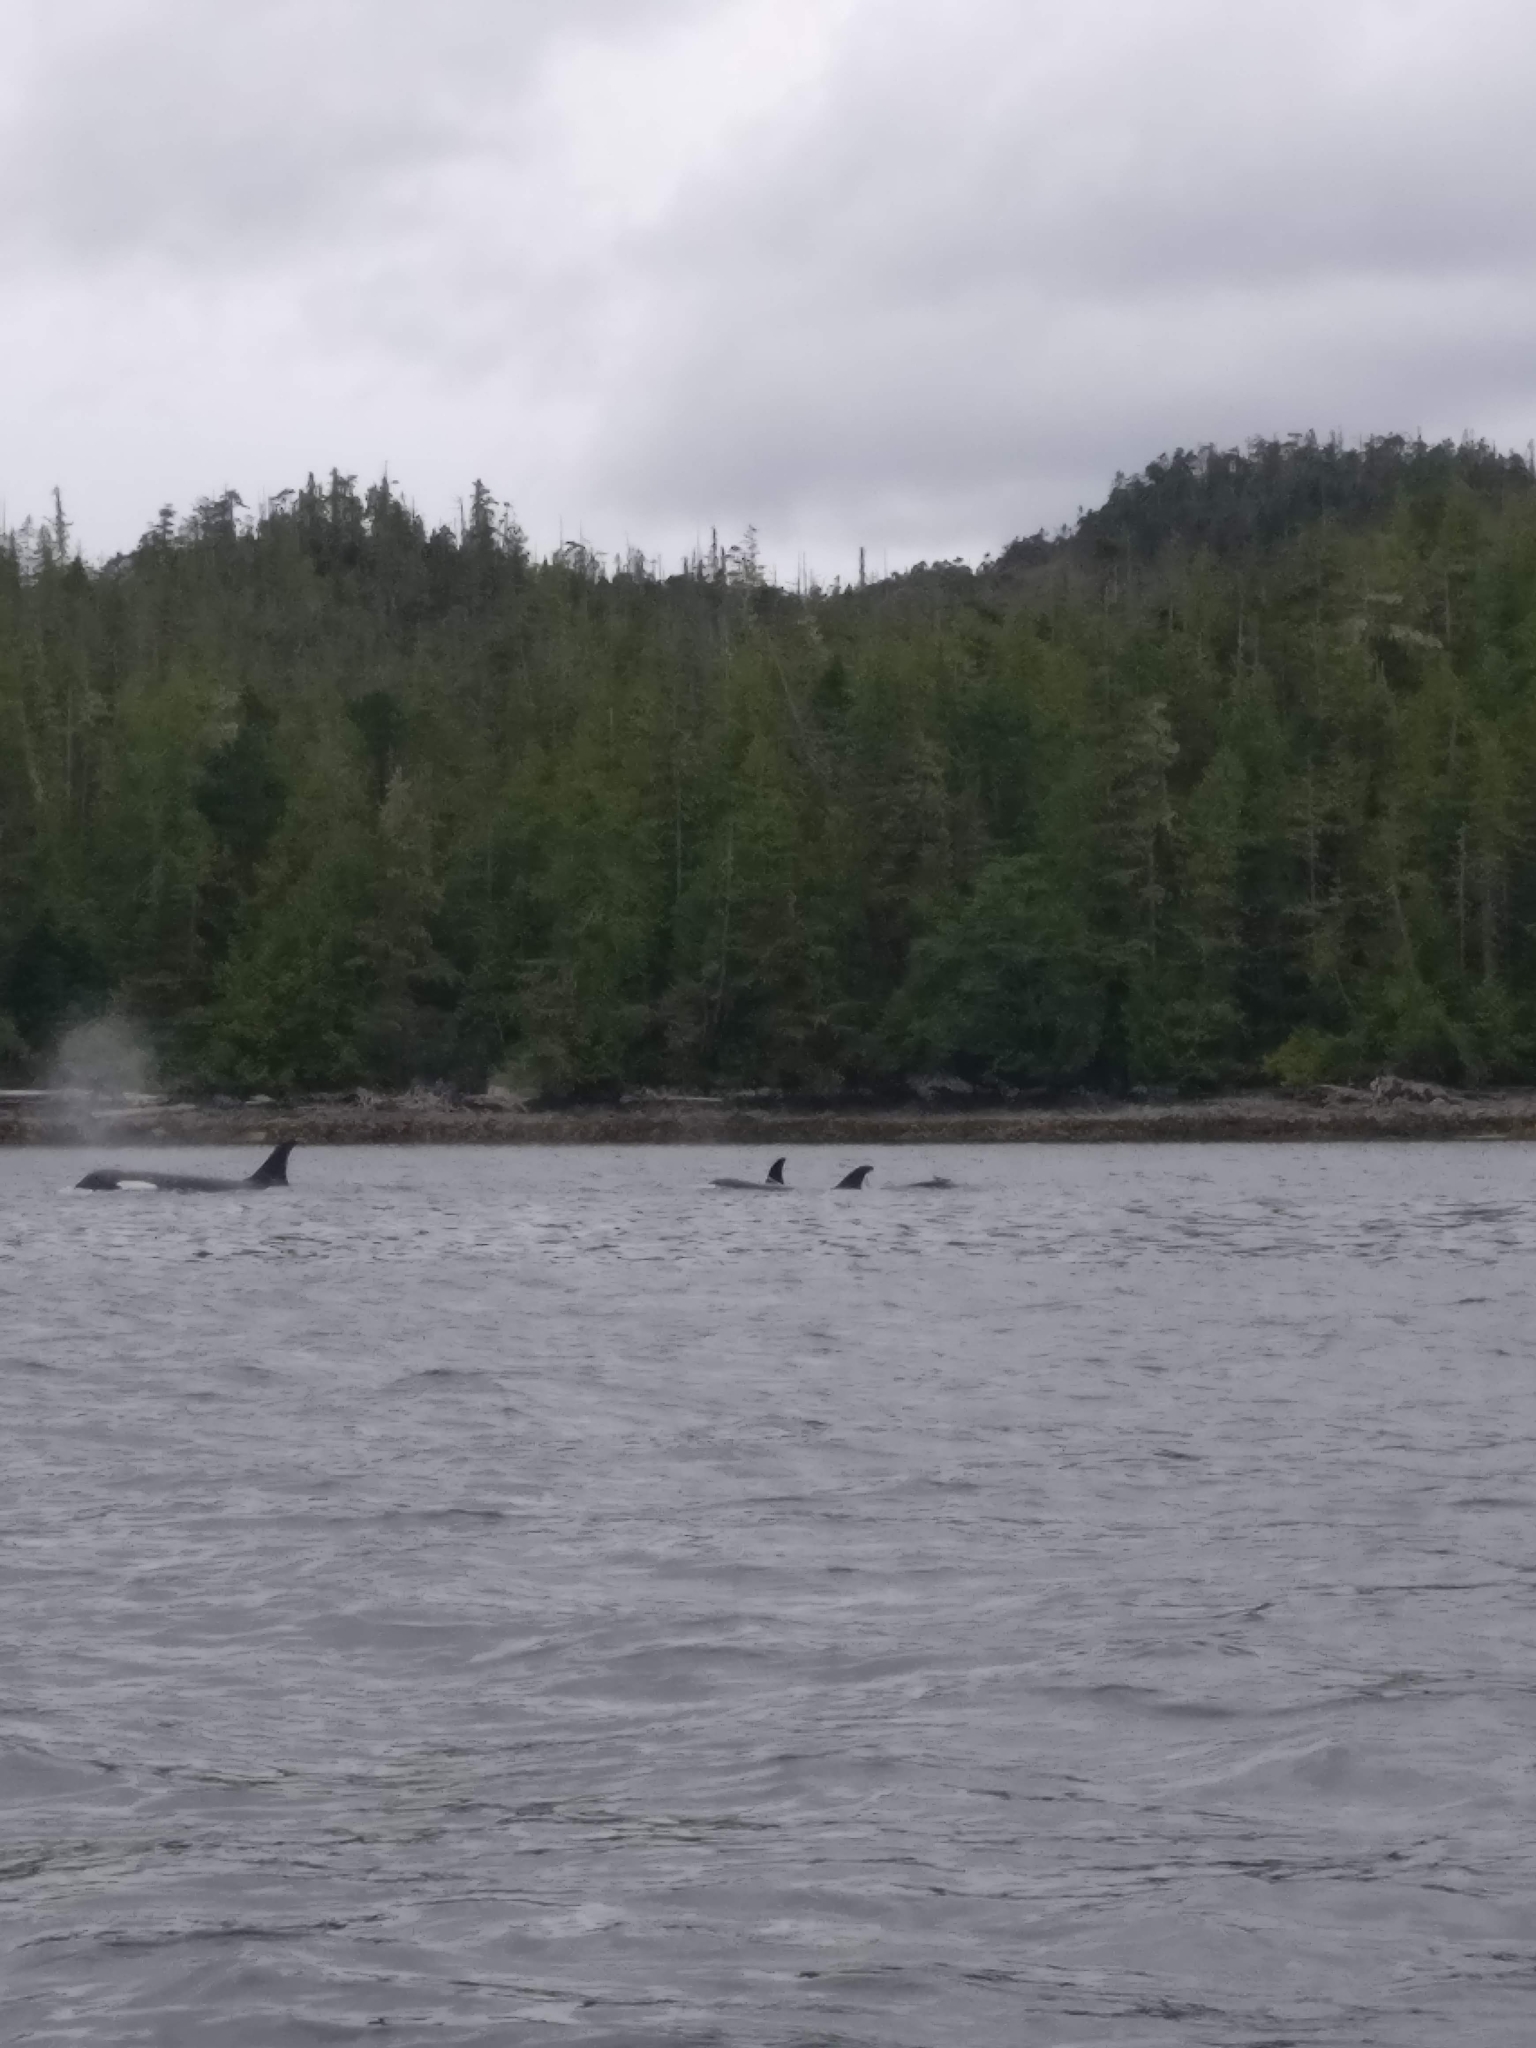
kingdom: Animalia
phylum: Chordata
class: Mammalia
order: Cetacea
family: Delphinidae
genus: Orcinus
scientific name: Orcinus orca
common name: Killer whale
